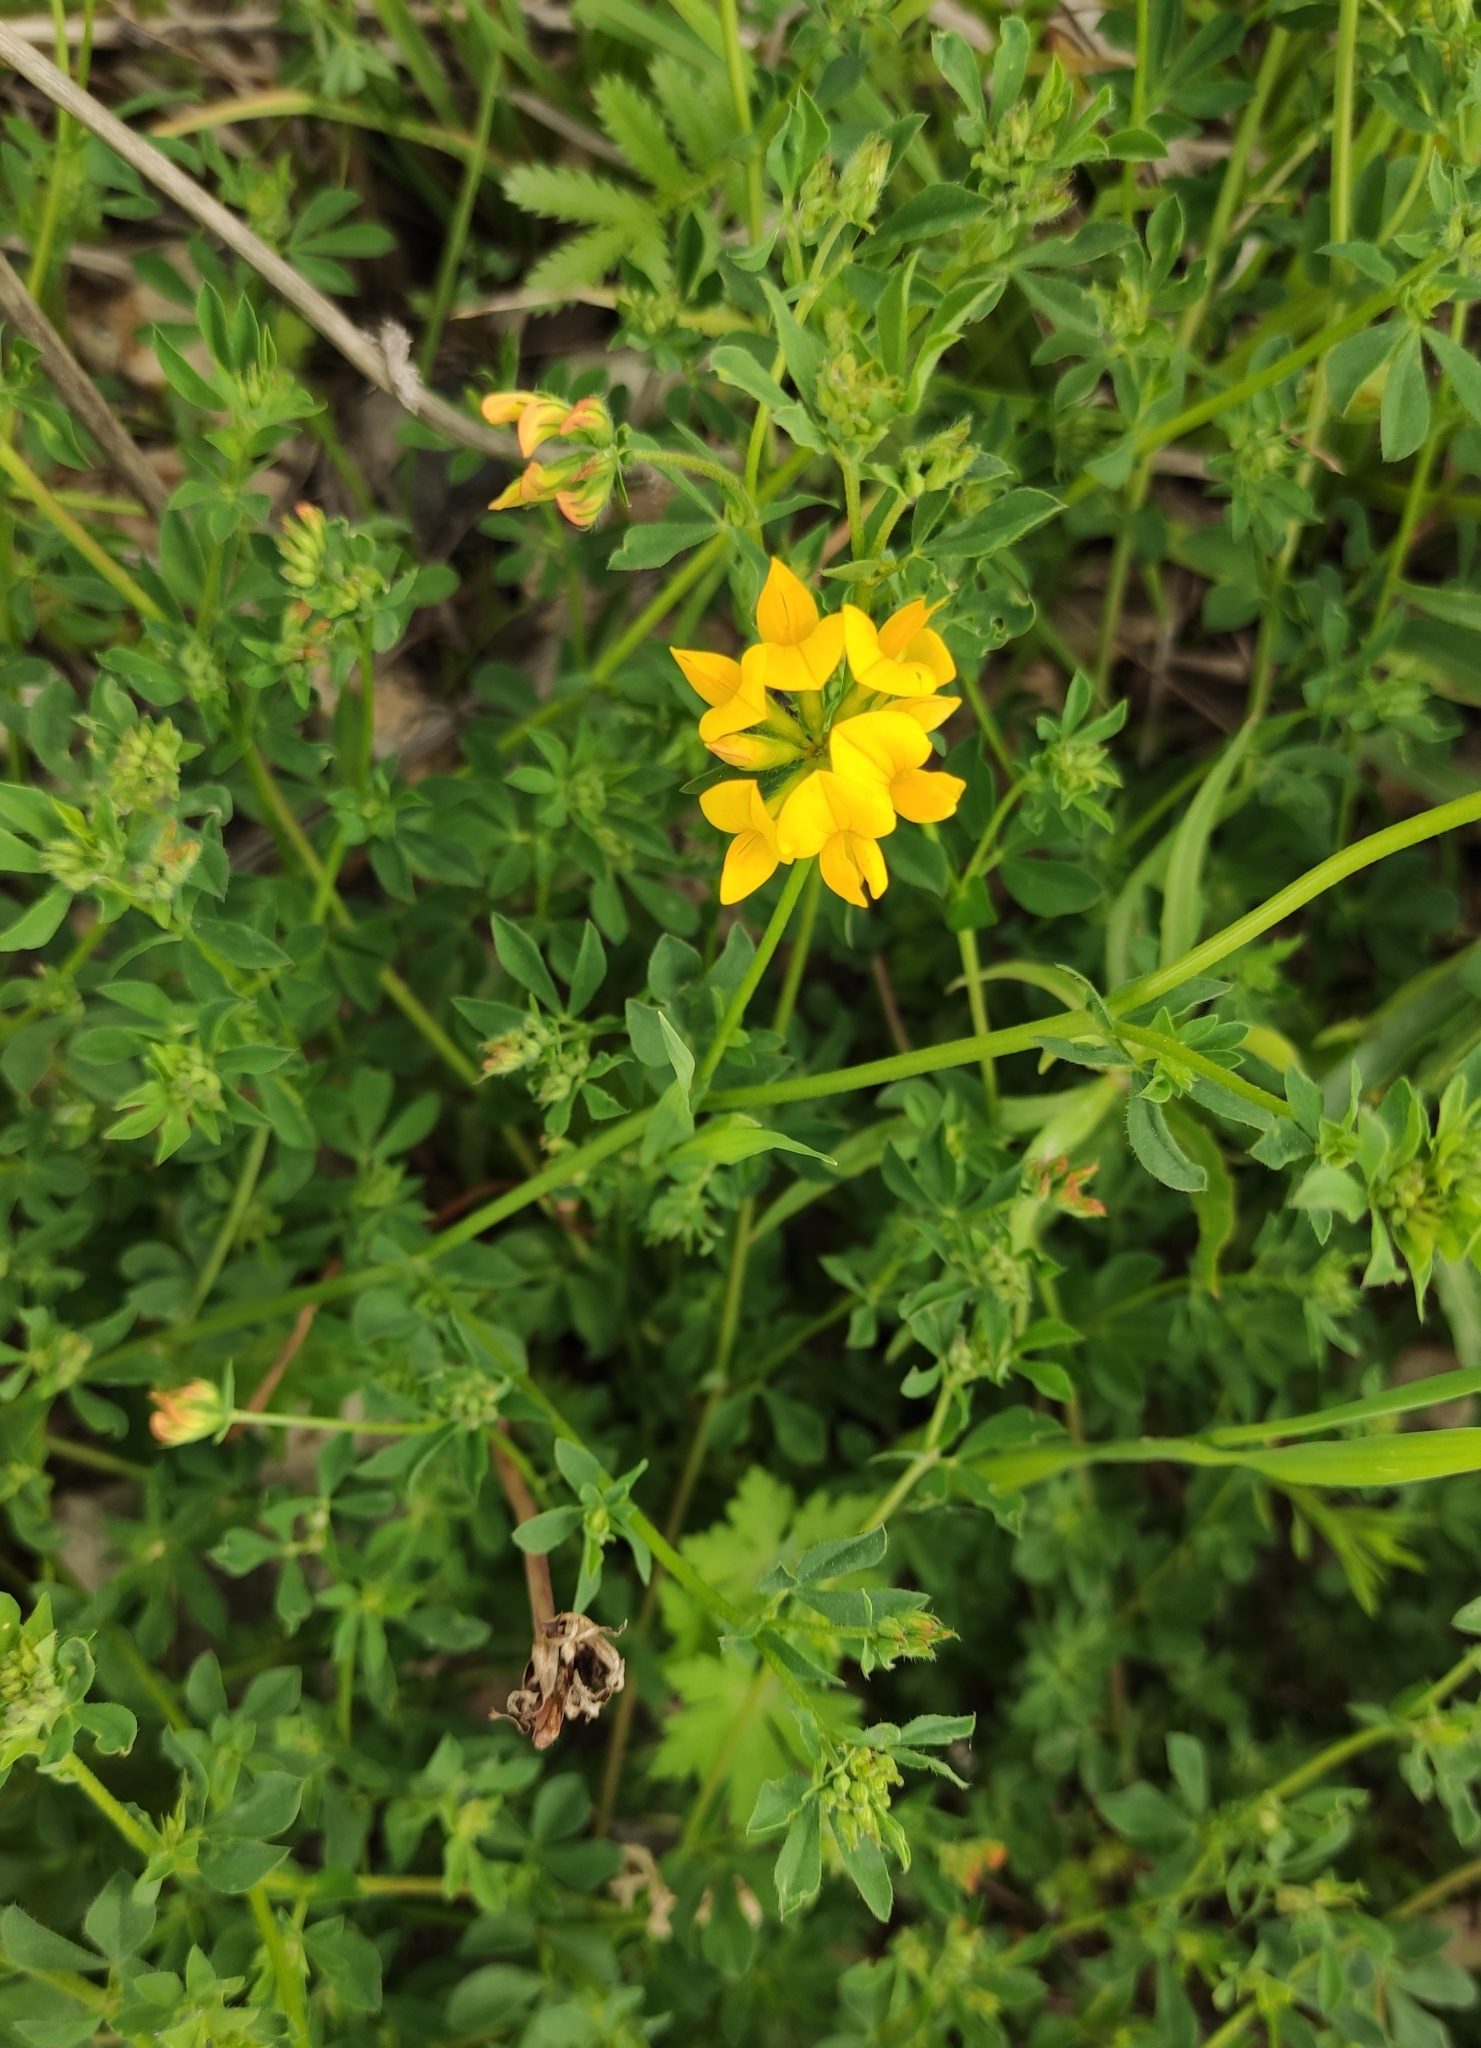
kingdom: Plantae
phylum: Tracheophyta
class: Magnoliopsida
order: Fabales
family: Fabaceae
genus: Lotus
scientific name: Lotus corniculatus
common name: Common bird's-foot-trefoil
